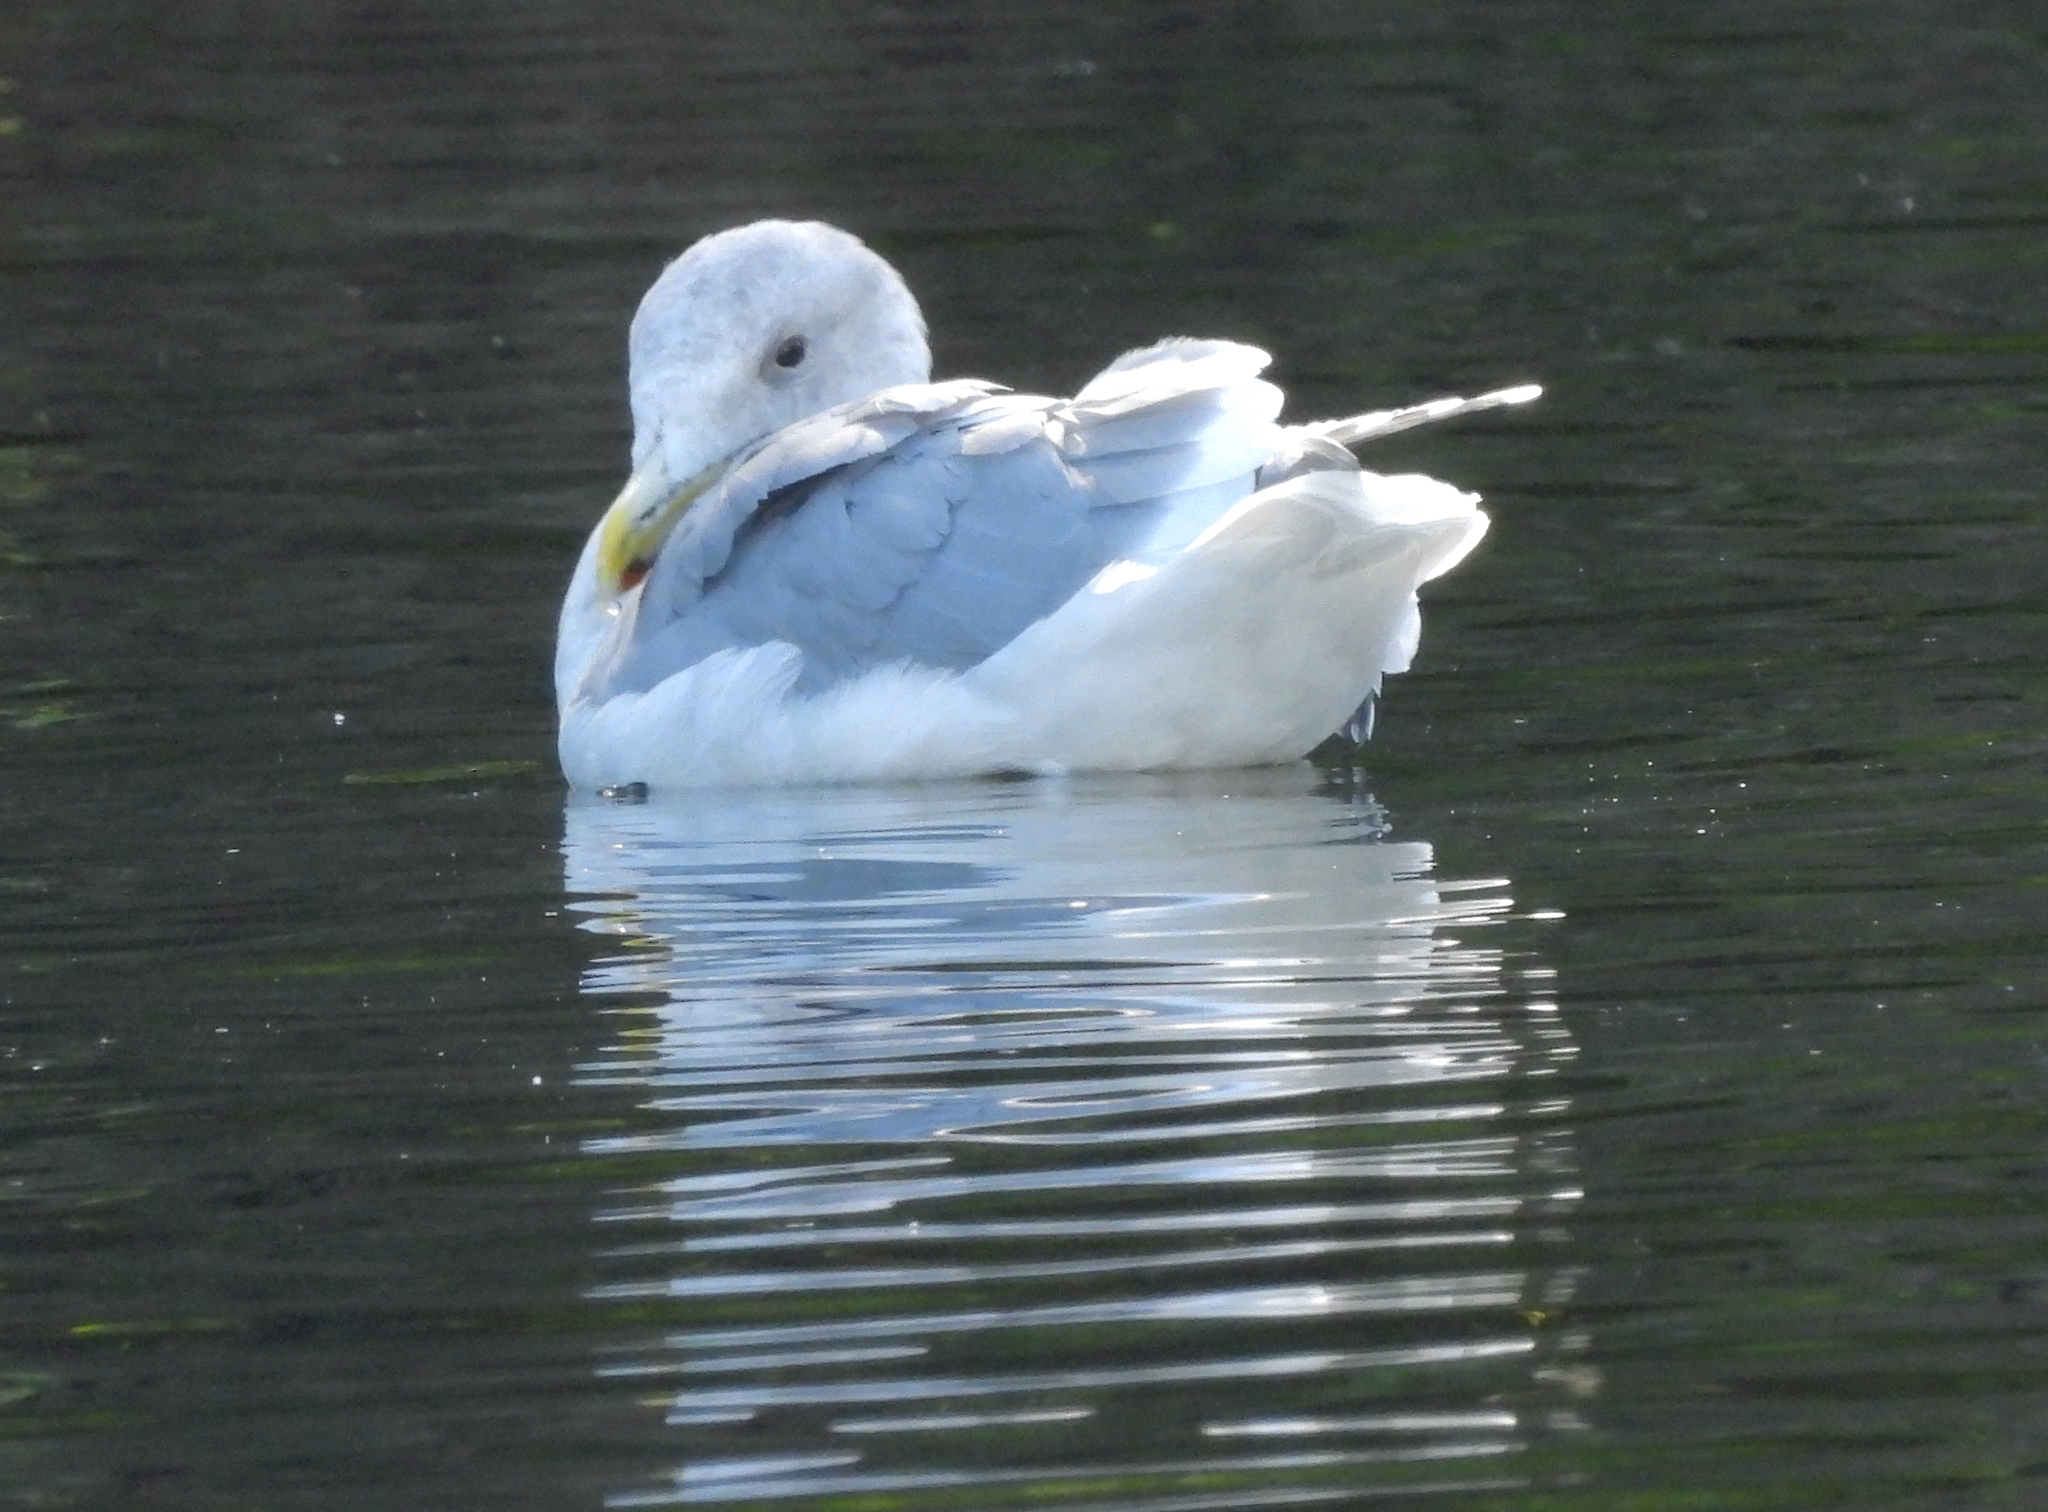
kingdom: Animalia
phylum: Chordata
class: Aves
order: Charadriiformes
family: Laridae
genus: Larus
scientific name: Larus
